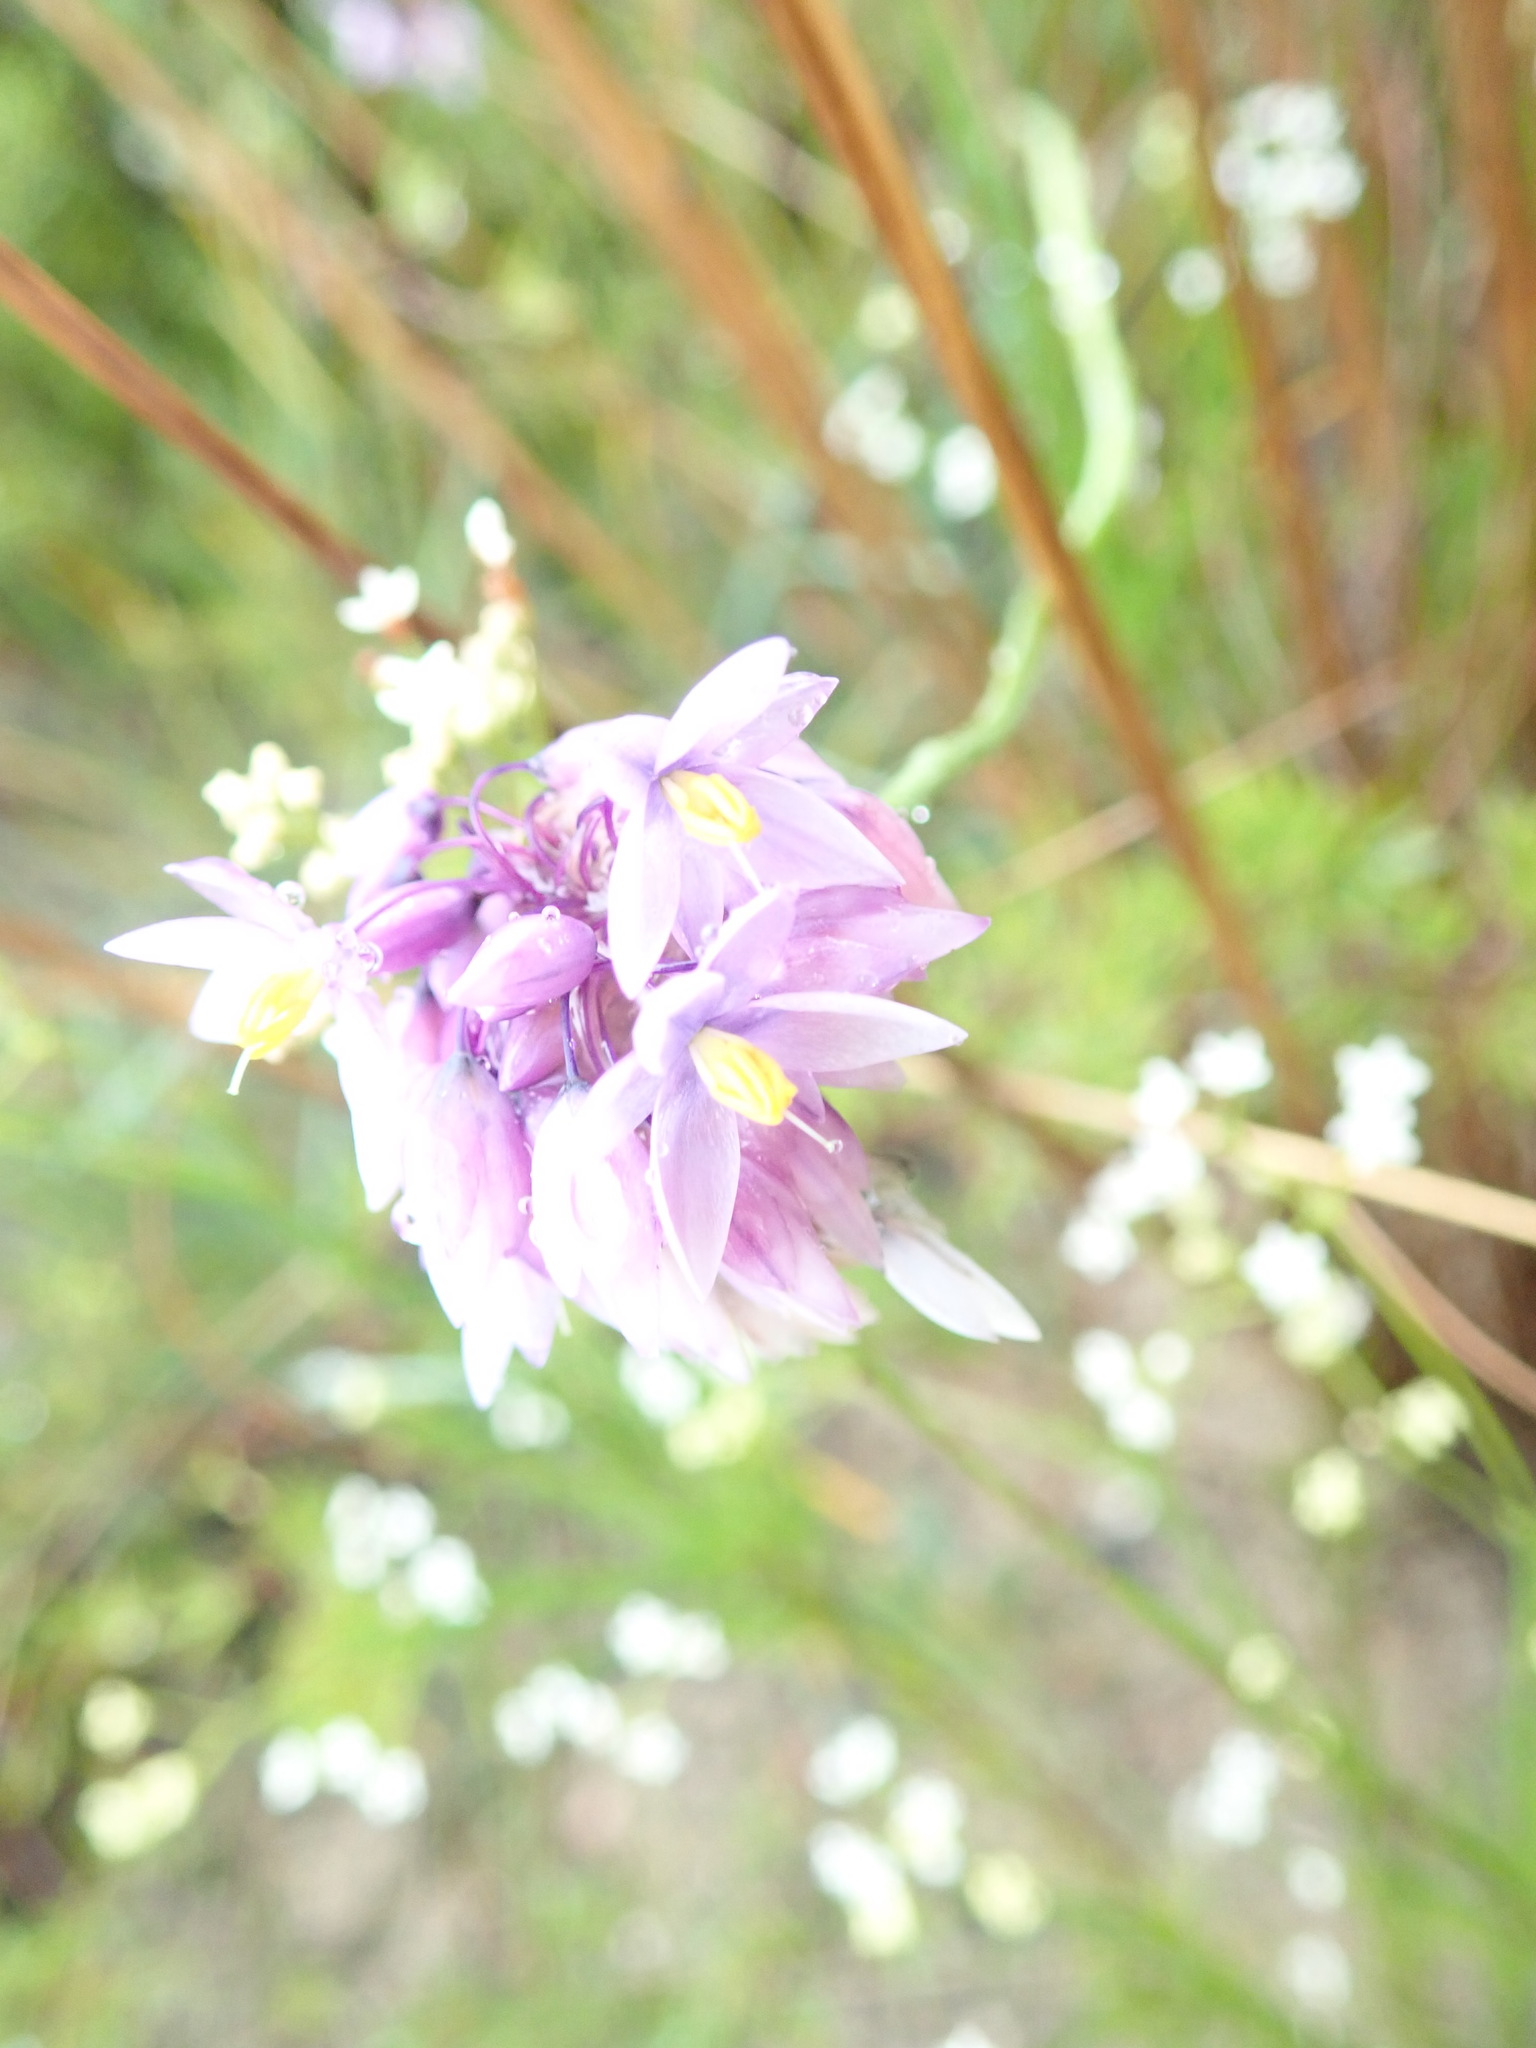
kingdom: Plantae
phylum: Tracheophyta
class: Liliopsida
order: Asparagales
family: Asparagaceae
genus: Sowerbaea
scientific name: Sowerbaea juncea
